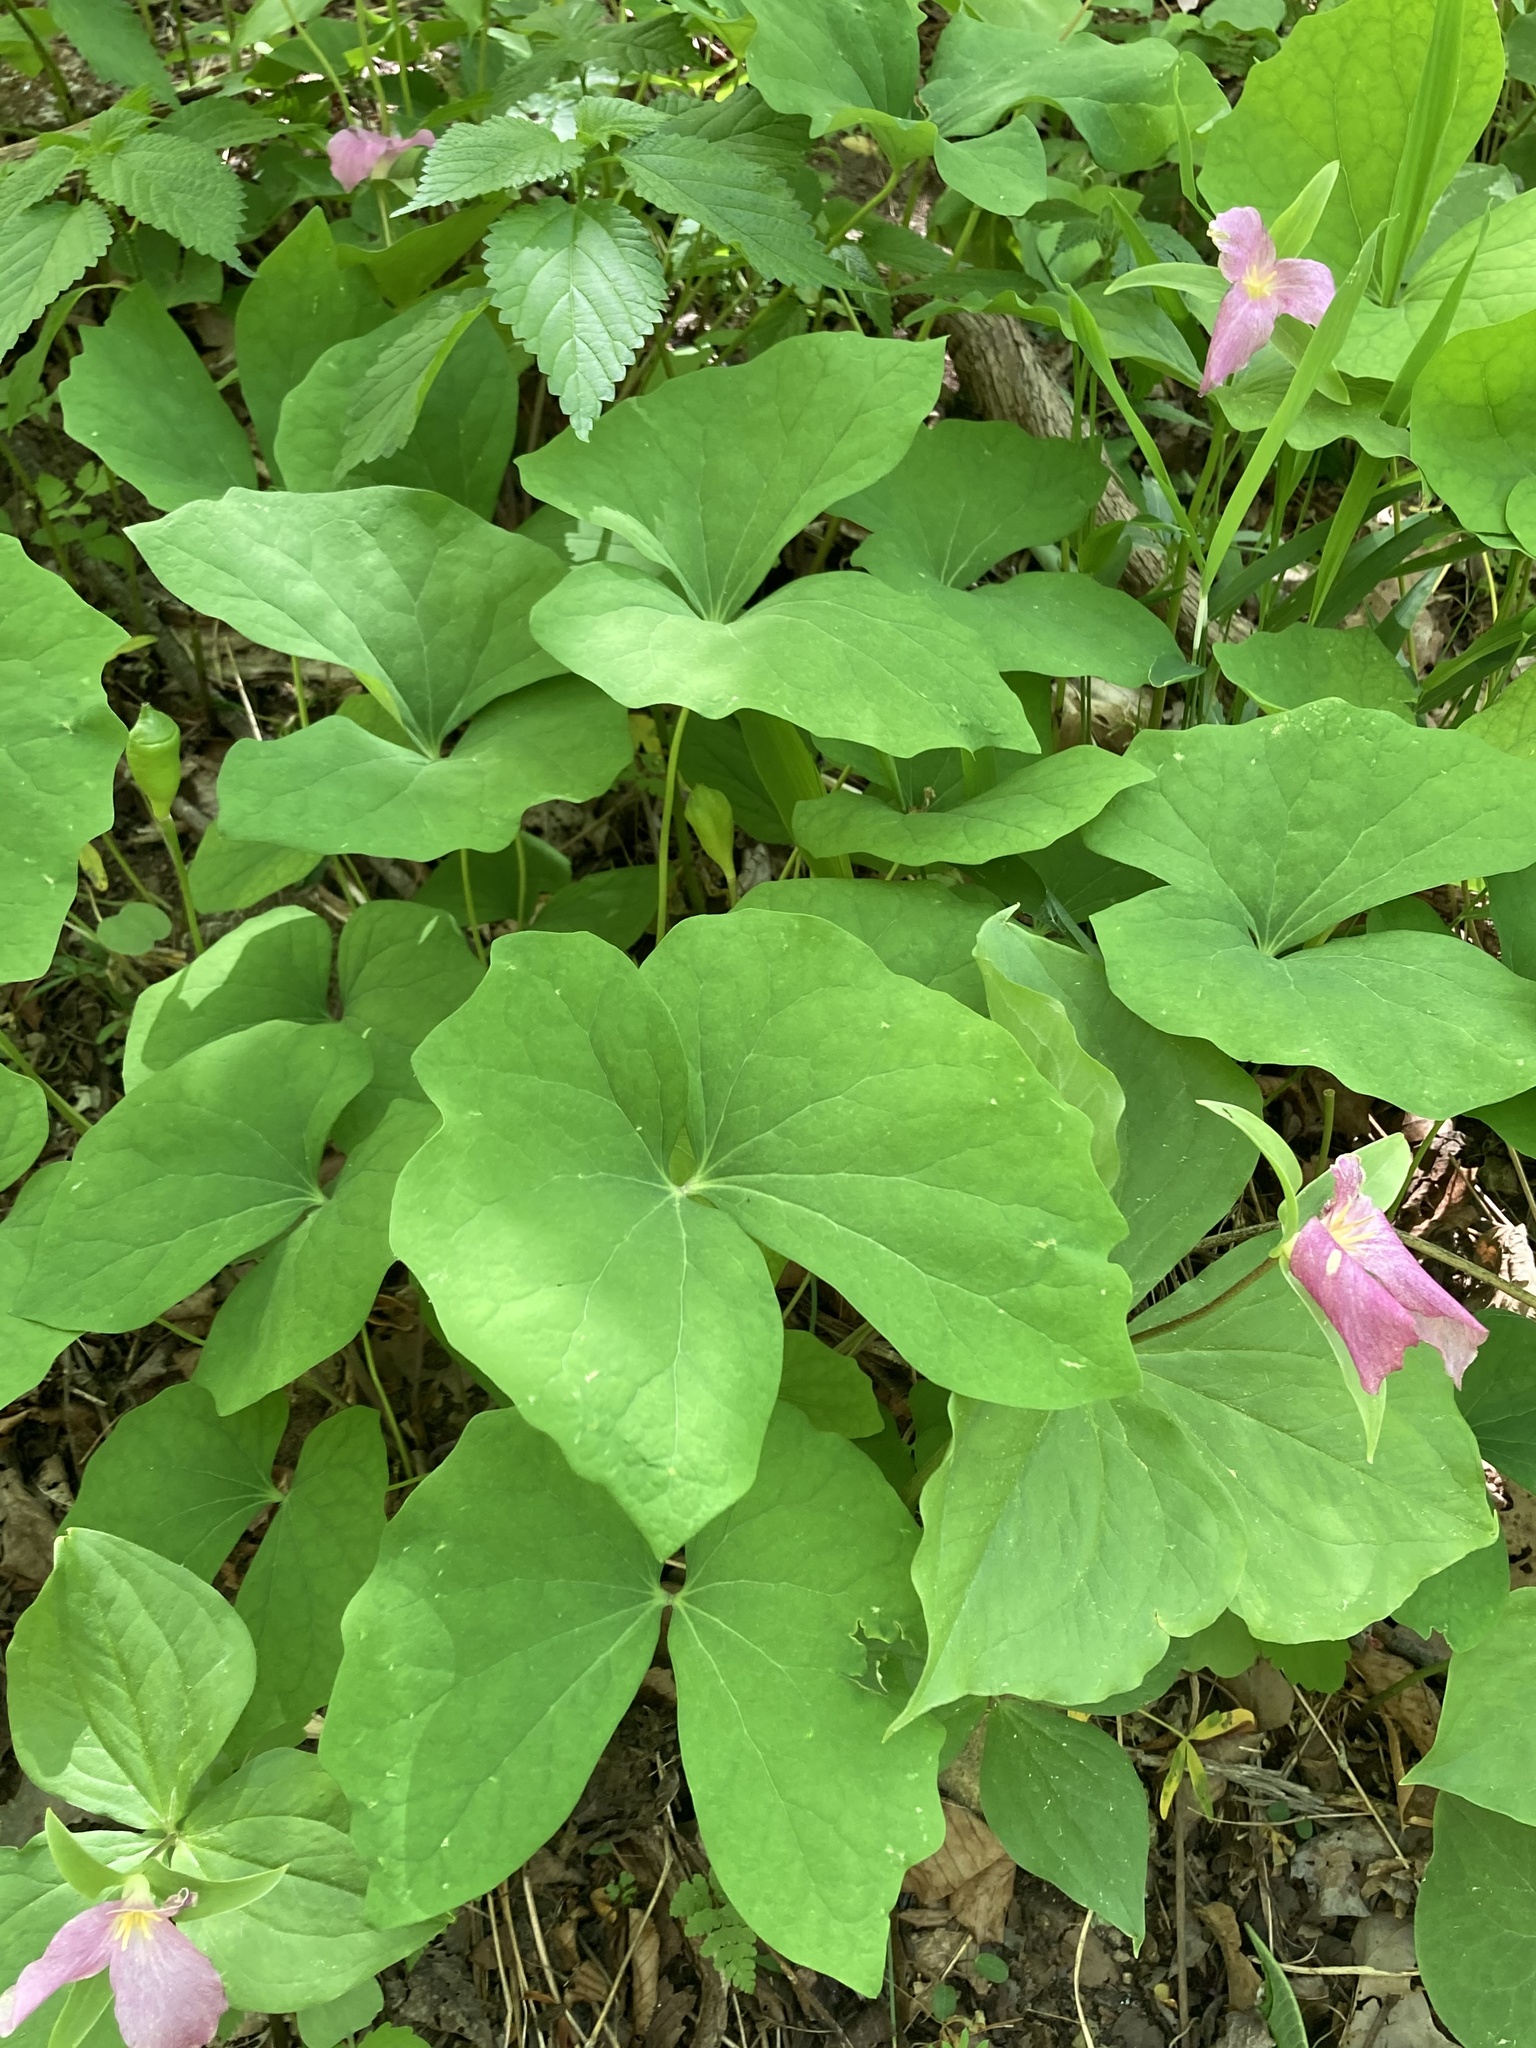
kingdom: Plantae
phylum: Tracheophyta
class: Magnoliopsida
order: Ranunculales
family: Berberidaceae
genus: Jeffersonia
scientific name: Jeffersonia diphylla
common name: Rheumatism-root
